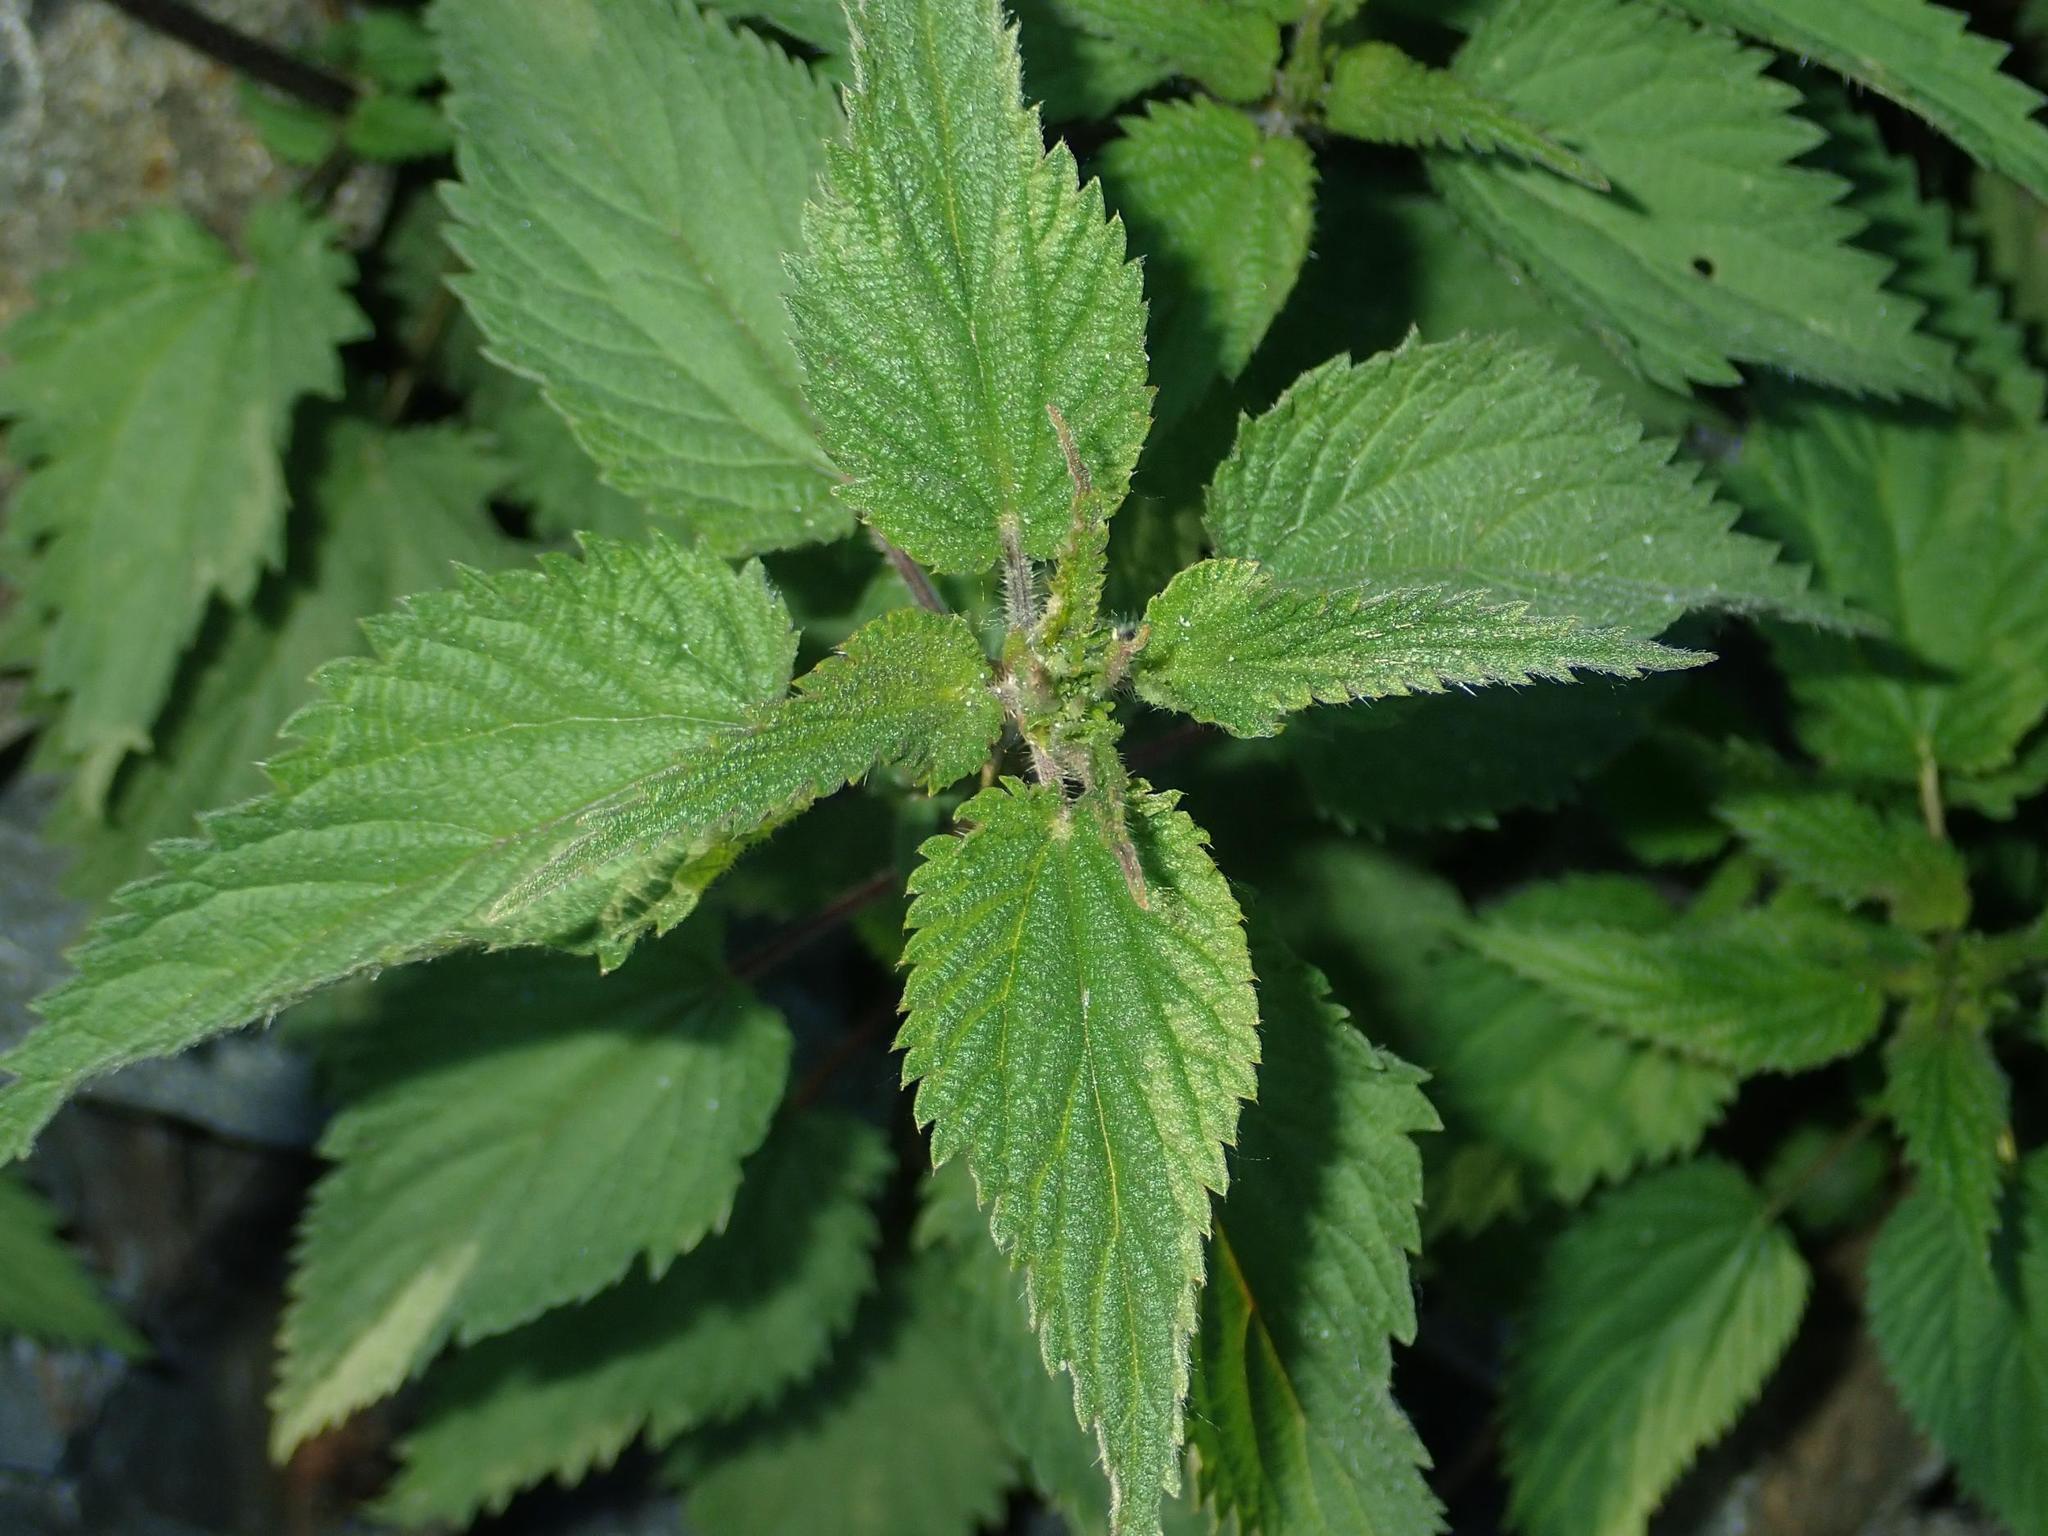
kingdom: Plantae
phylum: Tracheophyta
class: Magnoliopsida
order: Rosales
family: Urticaceae
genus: Urtica
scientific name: Urtica dioica
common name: Common nettle
